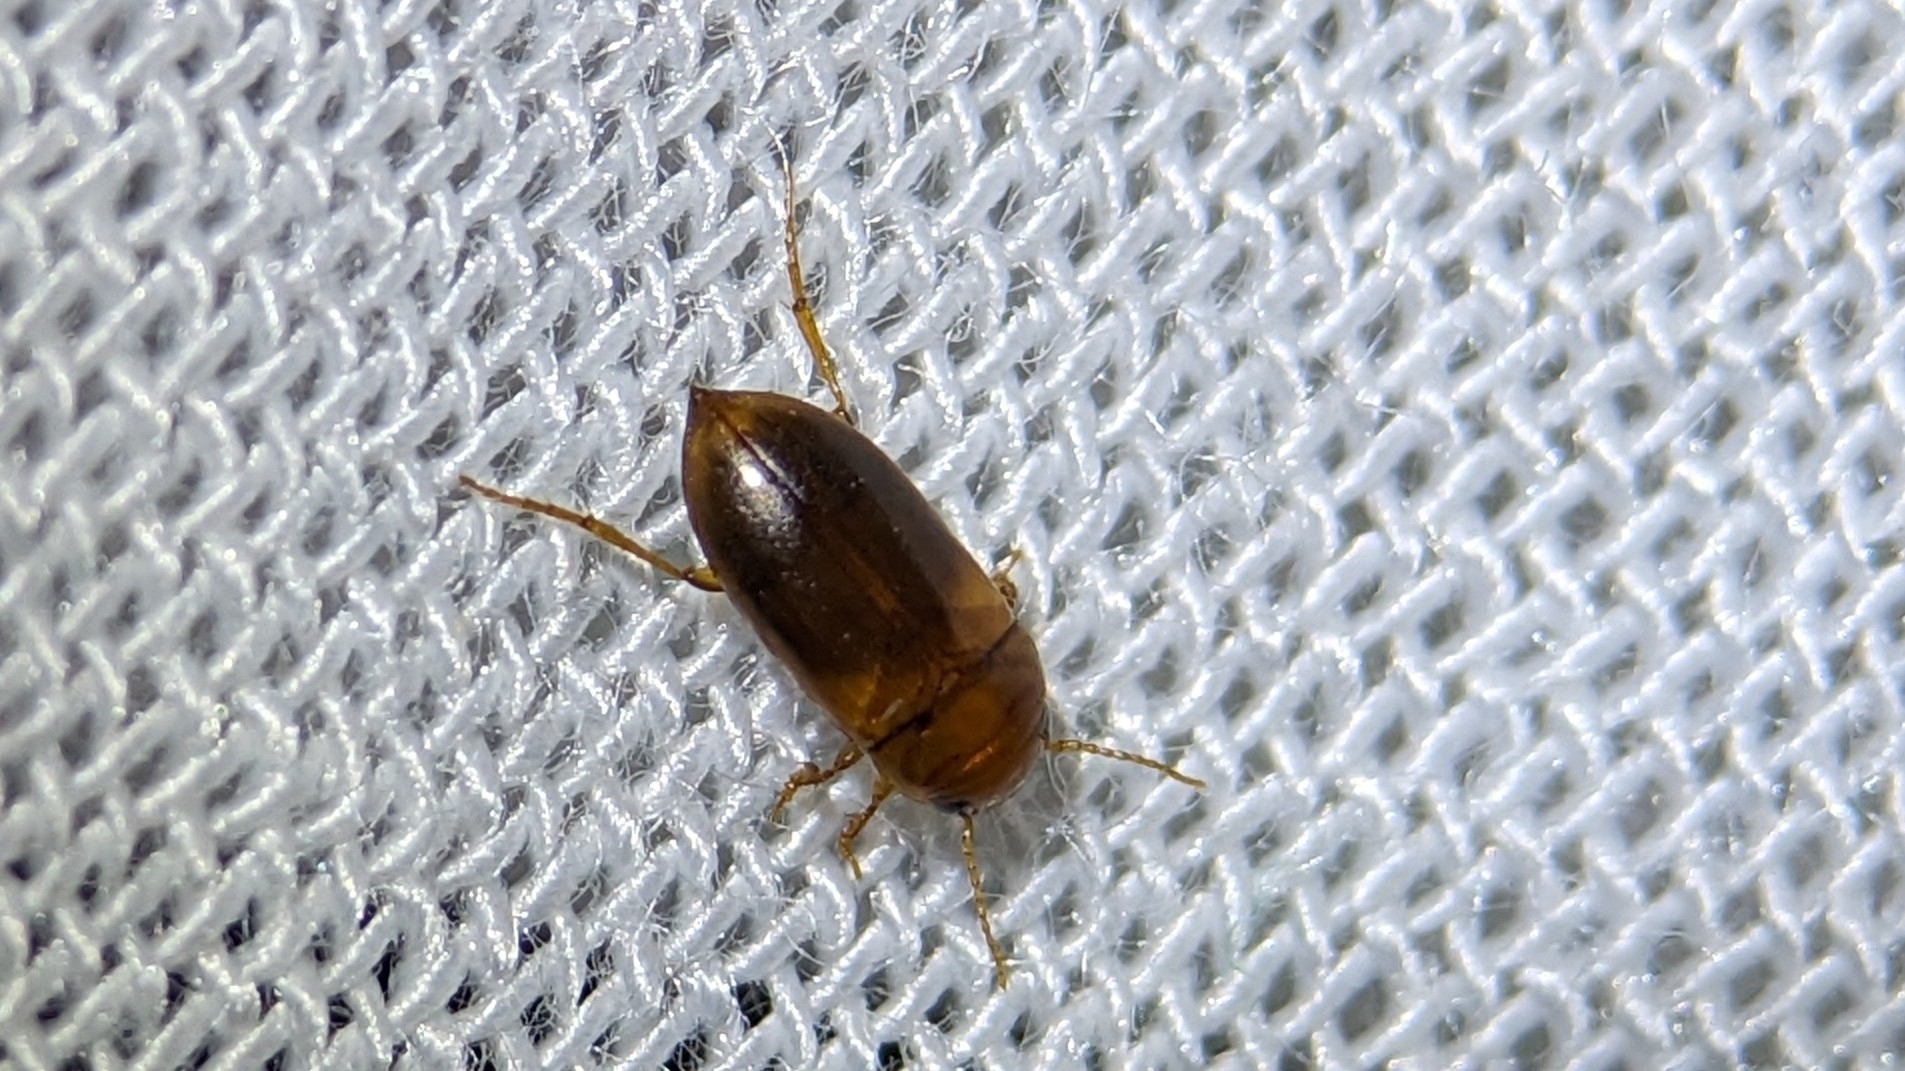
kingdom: Animalia
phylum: Arthropoda
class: Insecta
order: Coleoptera
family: Dytiscidae
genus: Celina
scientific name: Celina hubbelli
